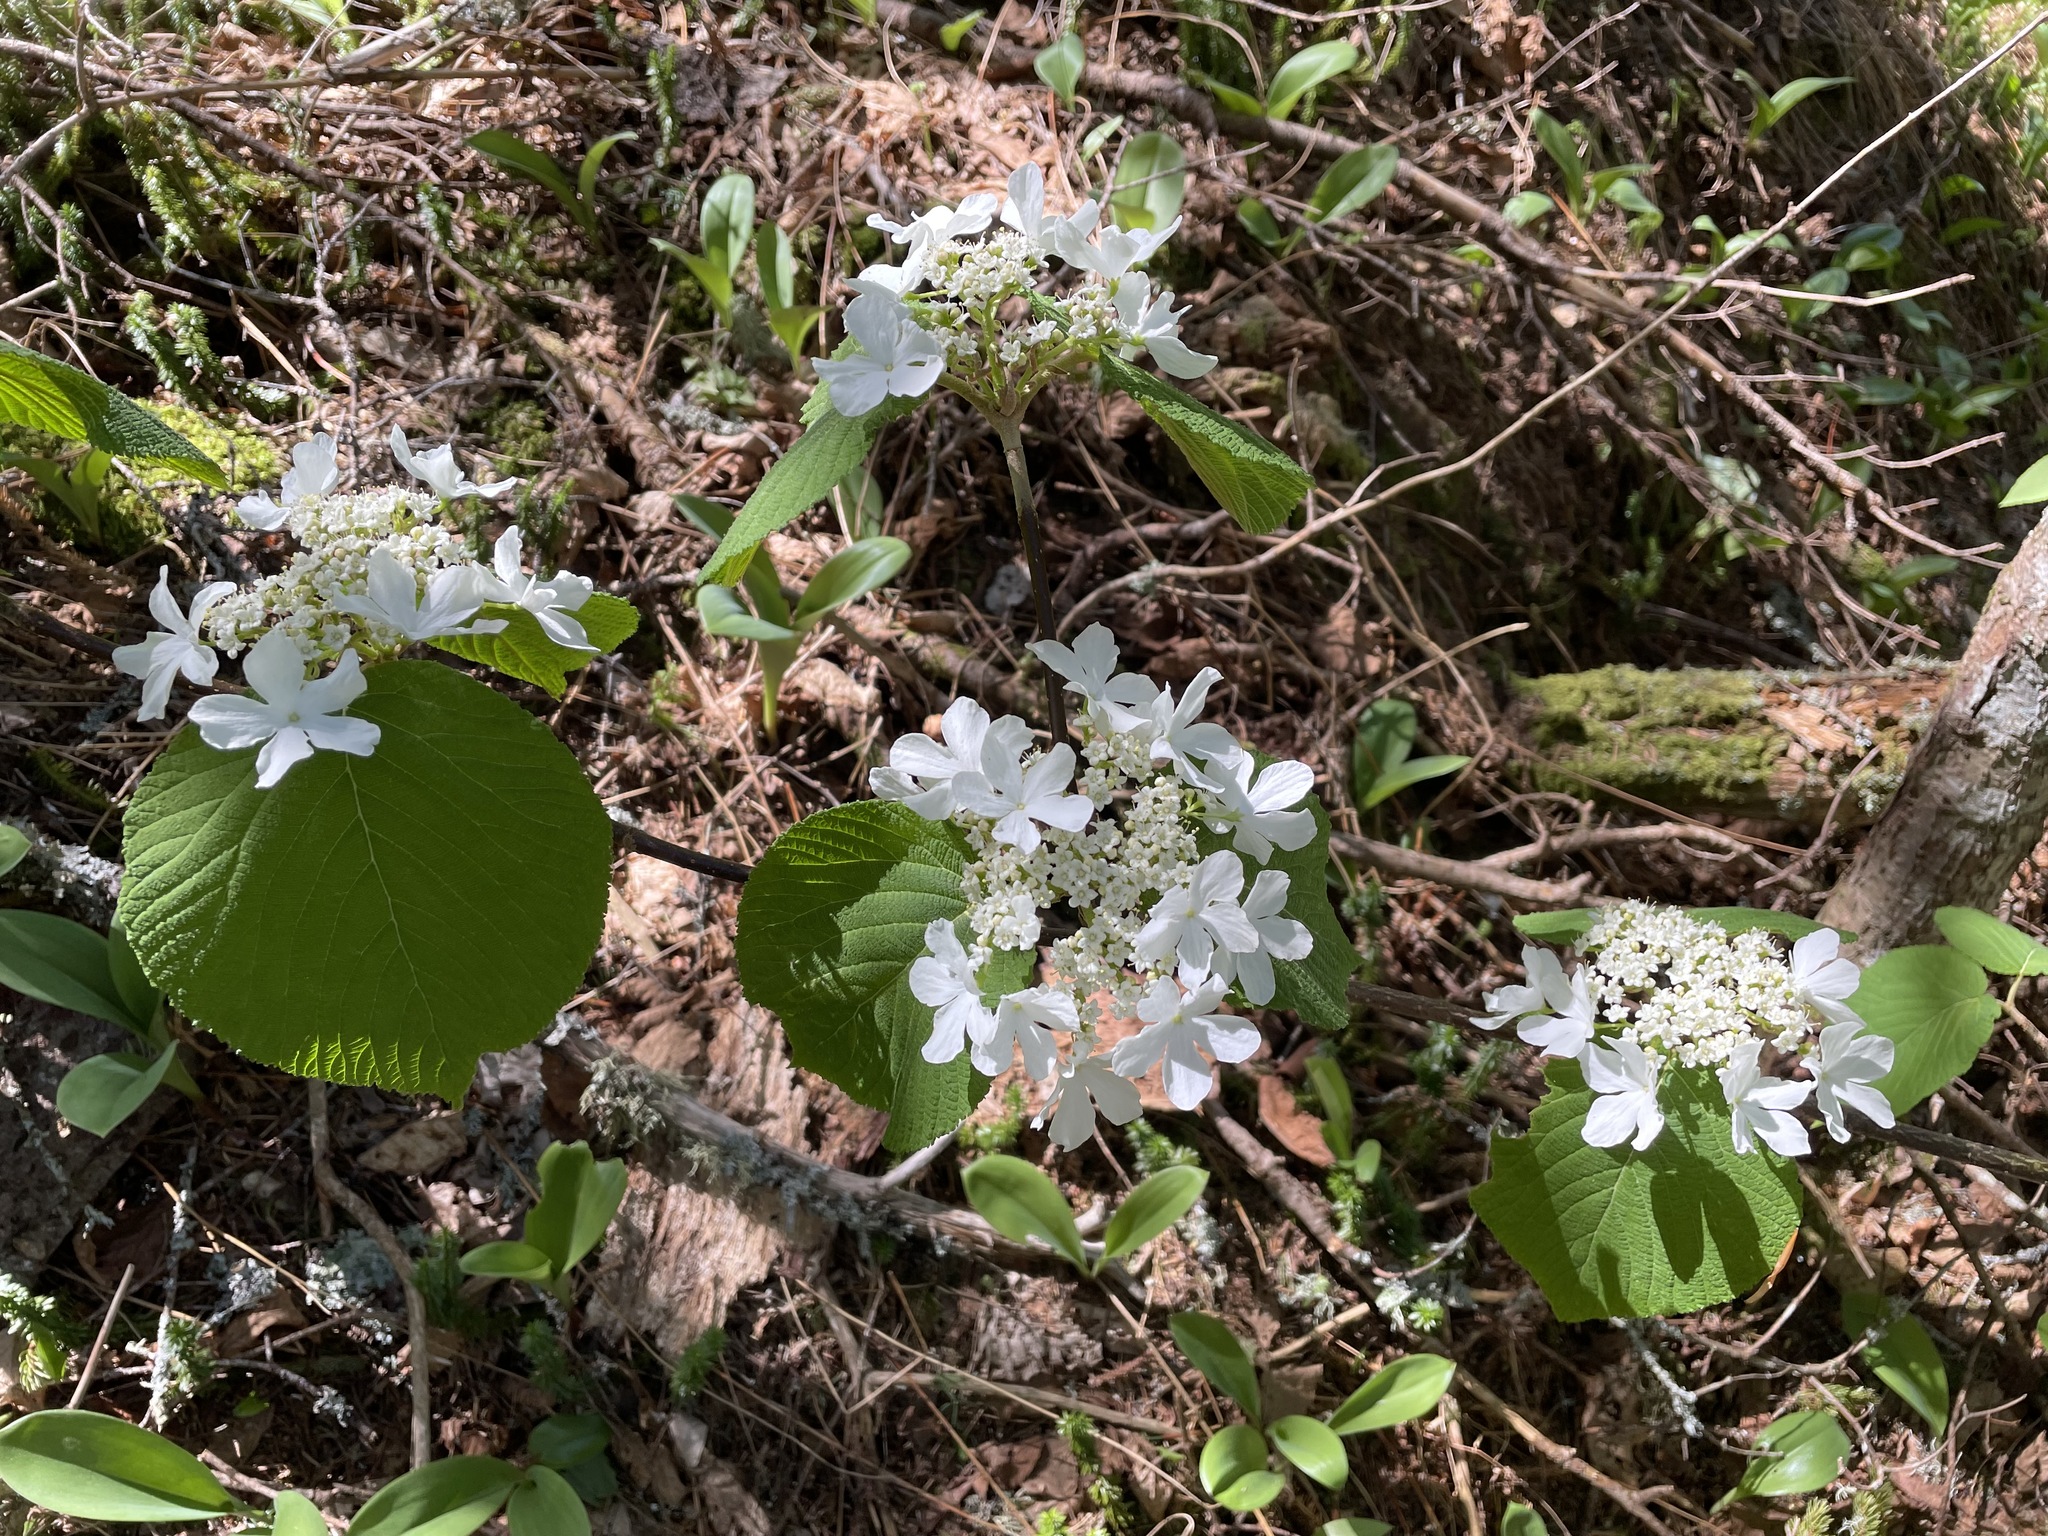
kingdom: Plantae
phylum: Tracheophyta
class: Magnoliopsida
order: Dipsacales
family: Viburnaceae
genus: Viburnum
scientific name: Viburnum lantanoides
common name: Hobblebush
